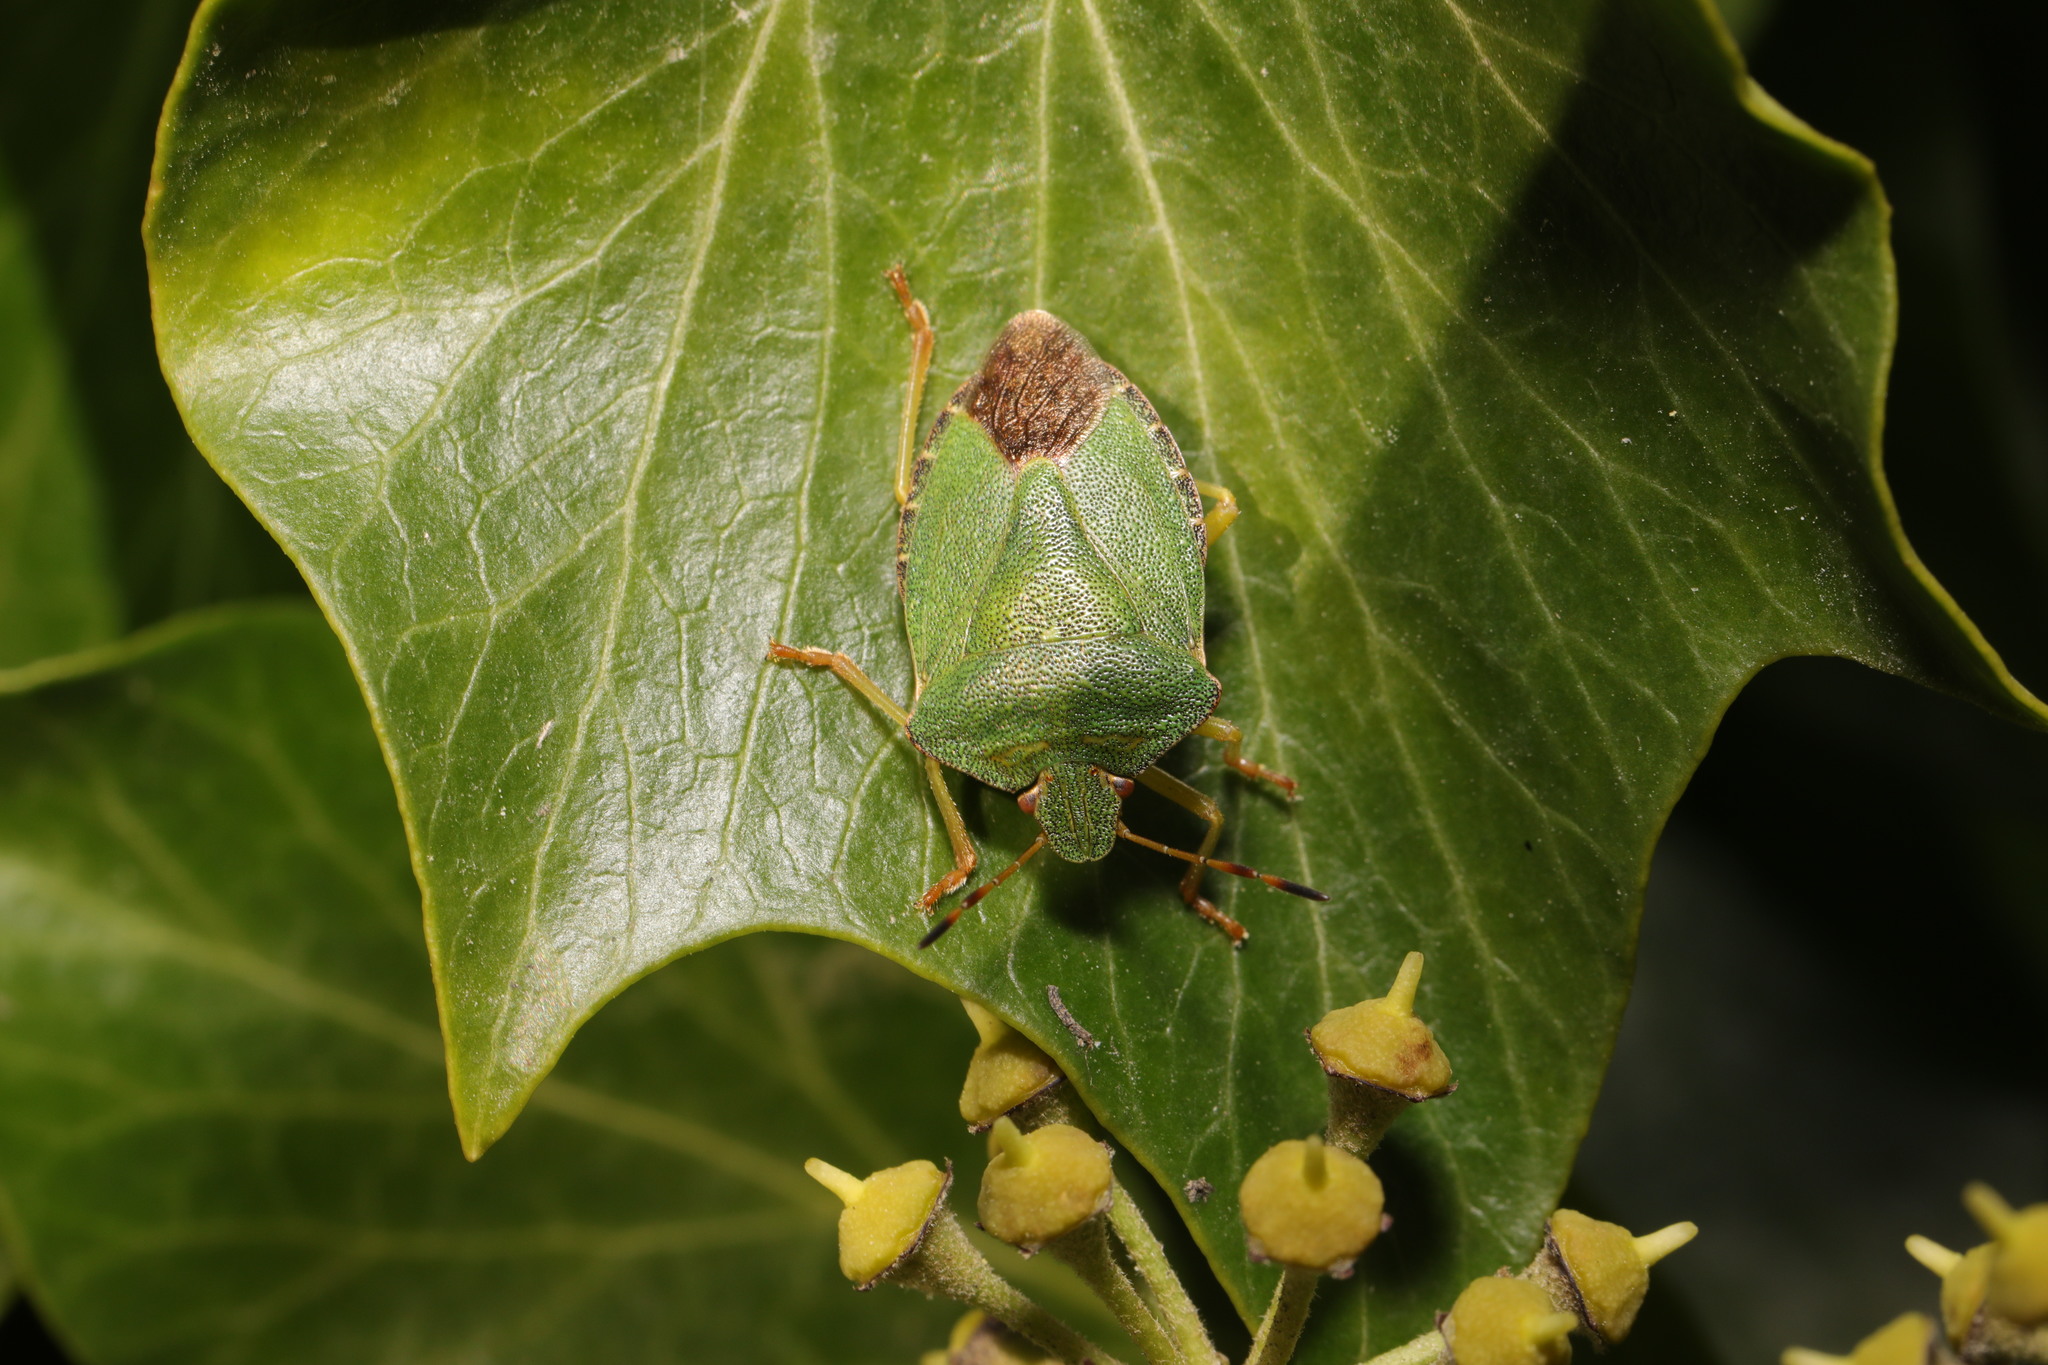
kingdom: Animalia
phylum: Arthropoda
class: Insecta
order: Hemiptera
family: Pentatomidae
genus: Palomena
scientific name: Palomena prasina
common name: Green shieldbug
